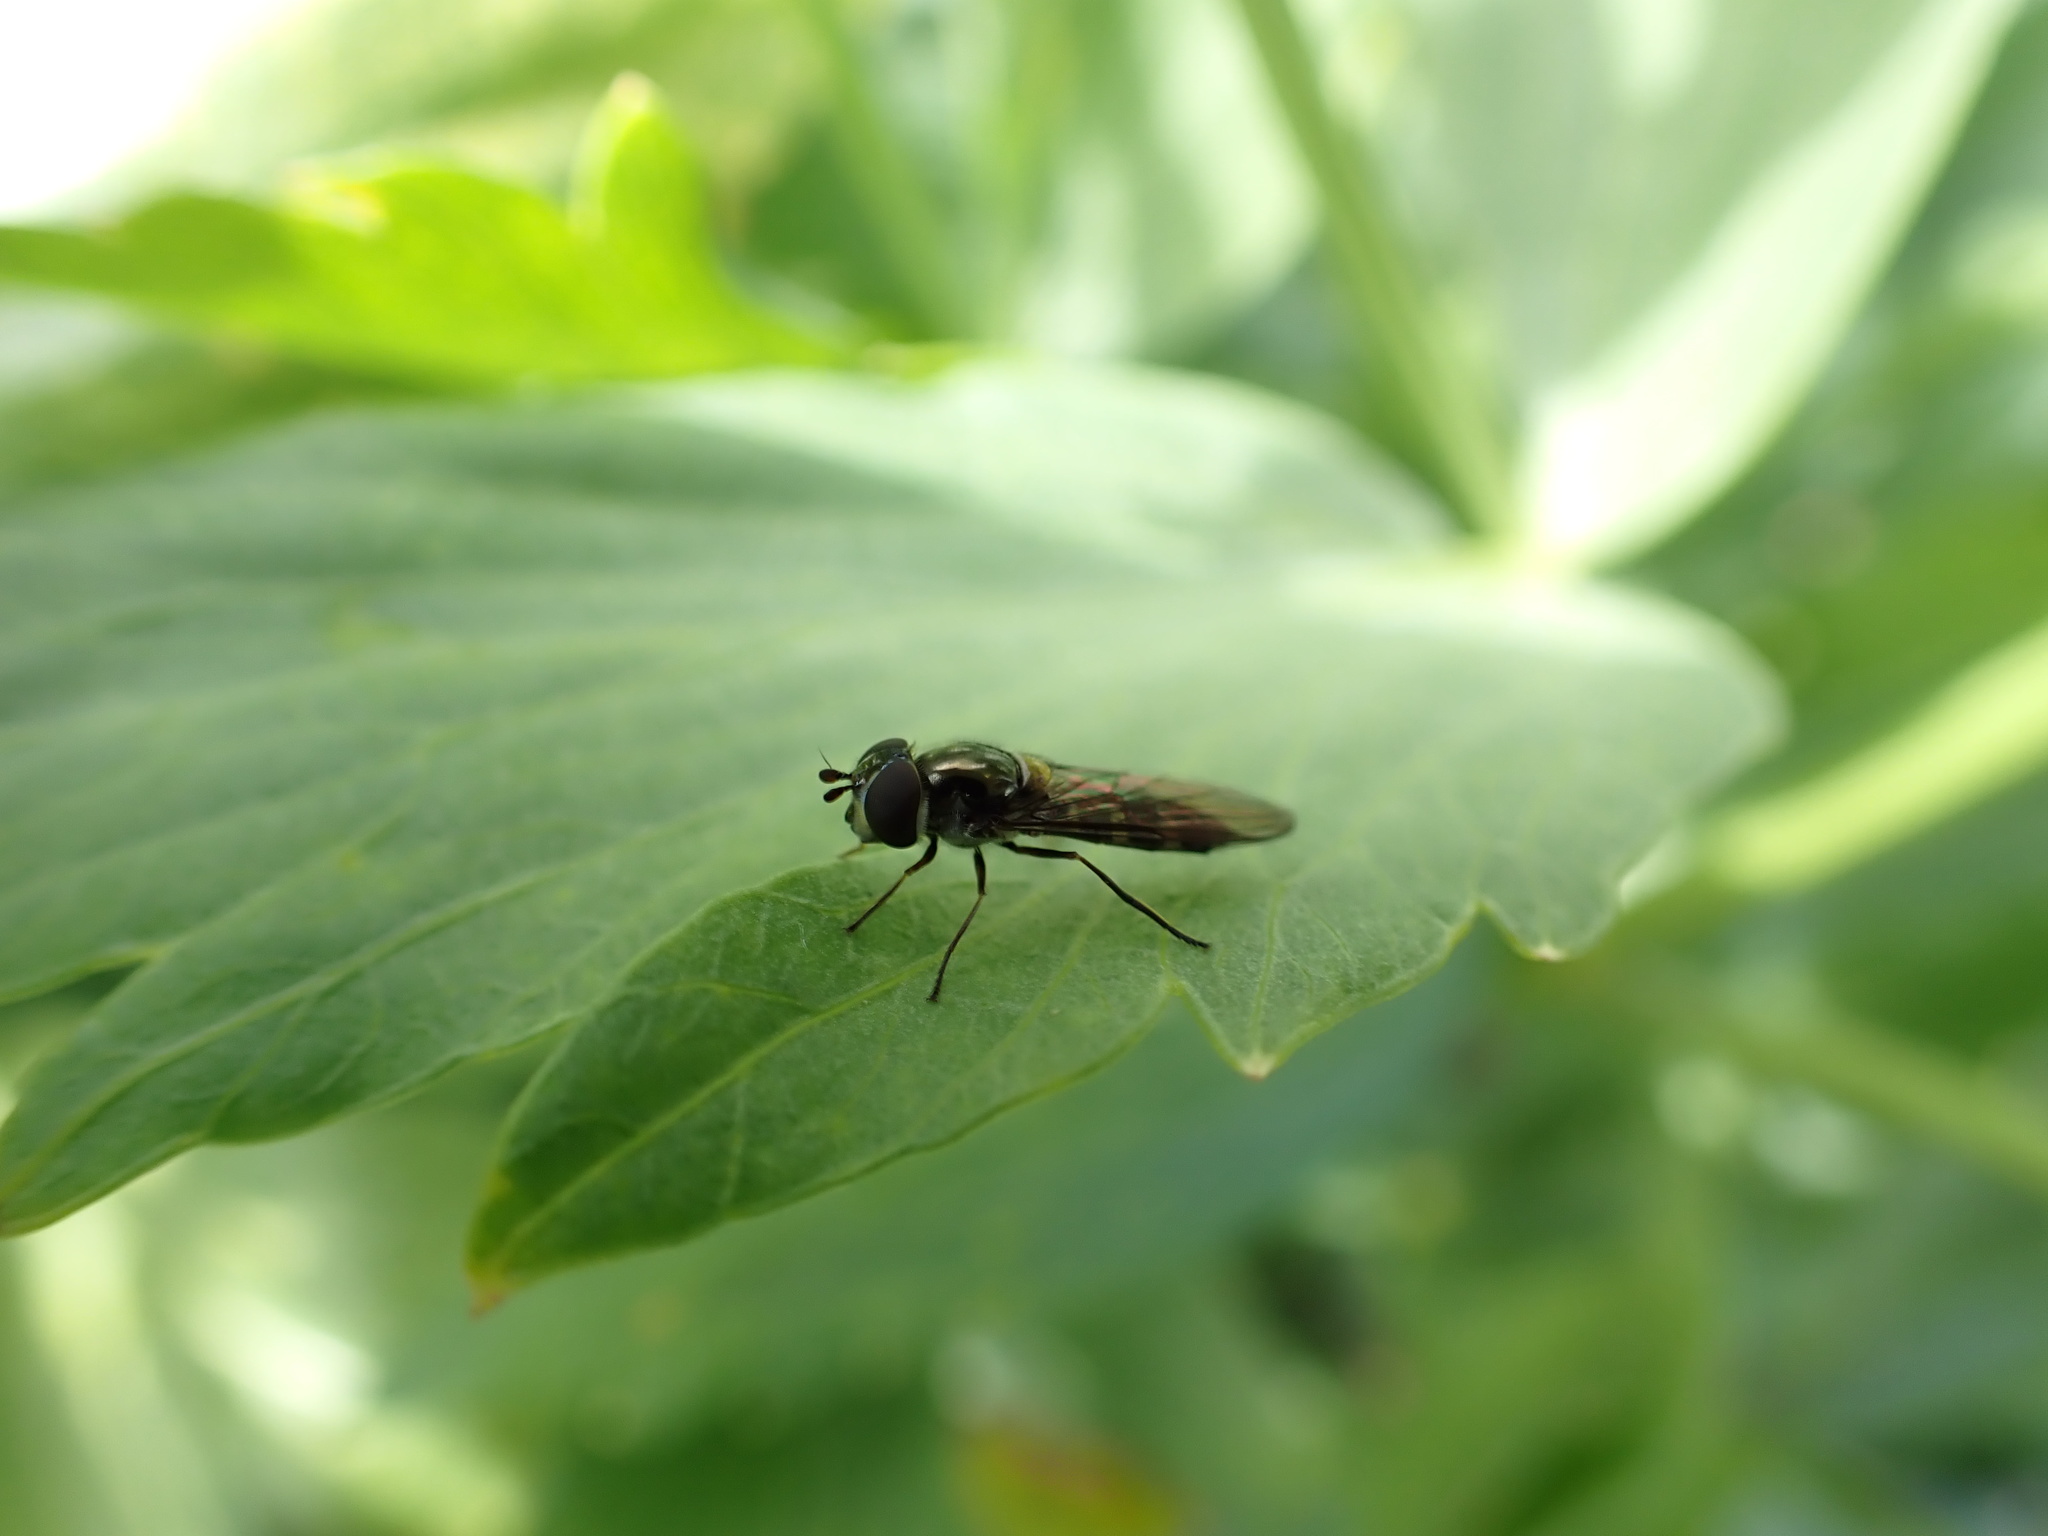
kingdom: Animalia
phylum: Arthropoda
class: Insecta
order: Diptera
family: Syrphidae
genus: Melangyna
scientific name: Melangyna novaezelandiae
